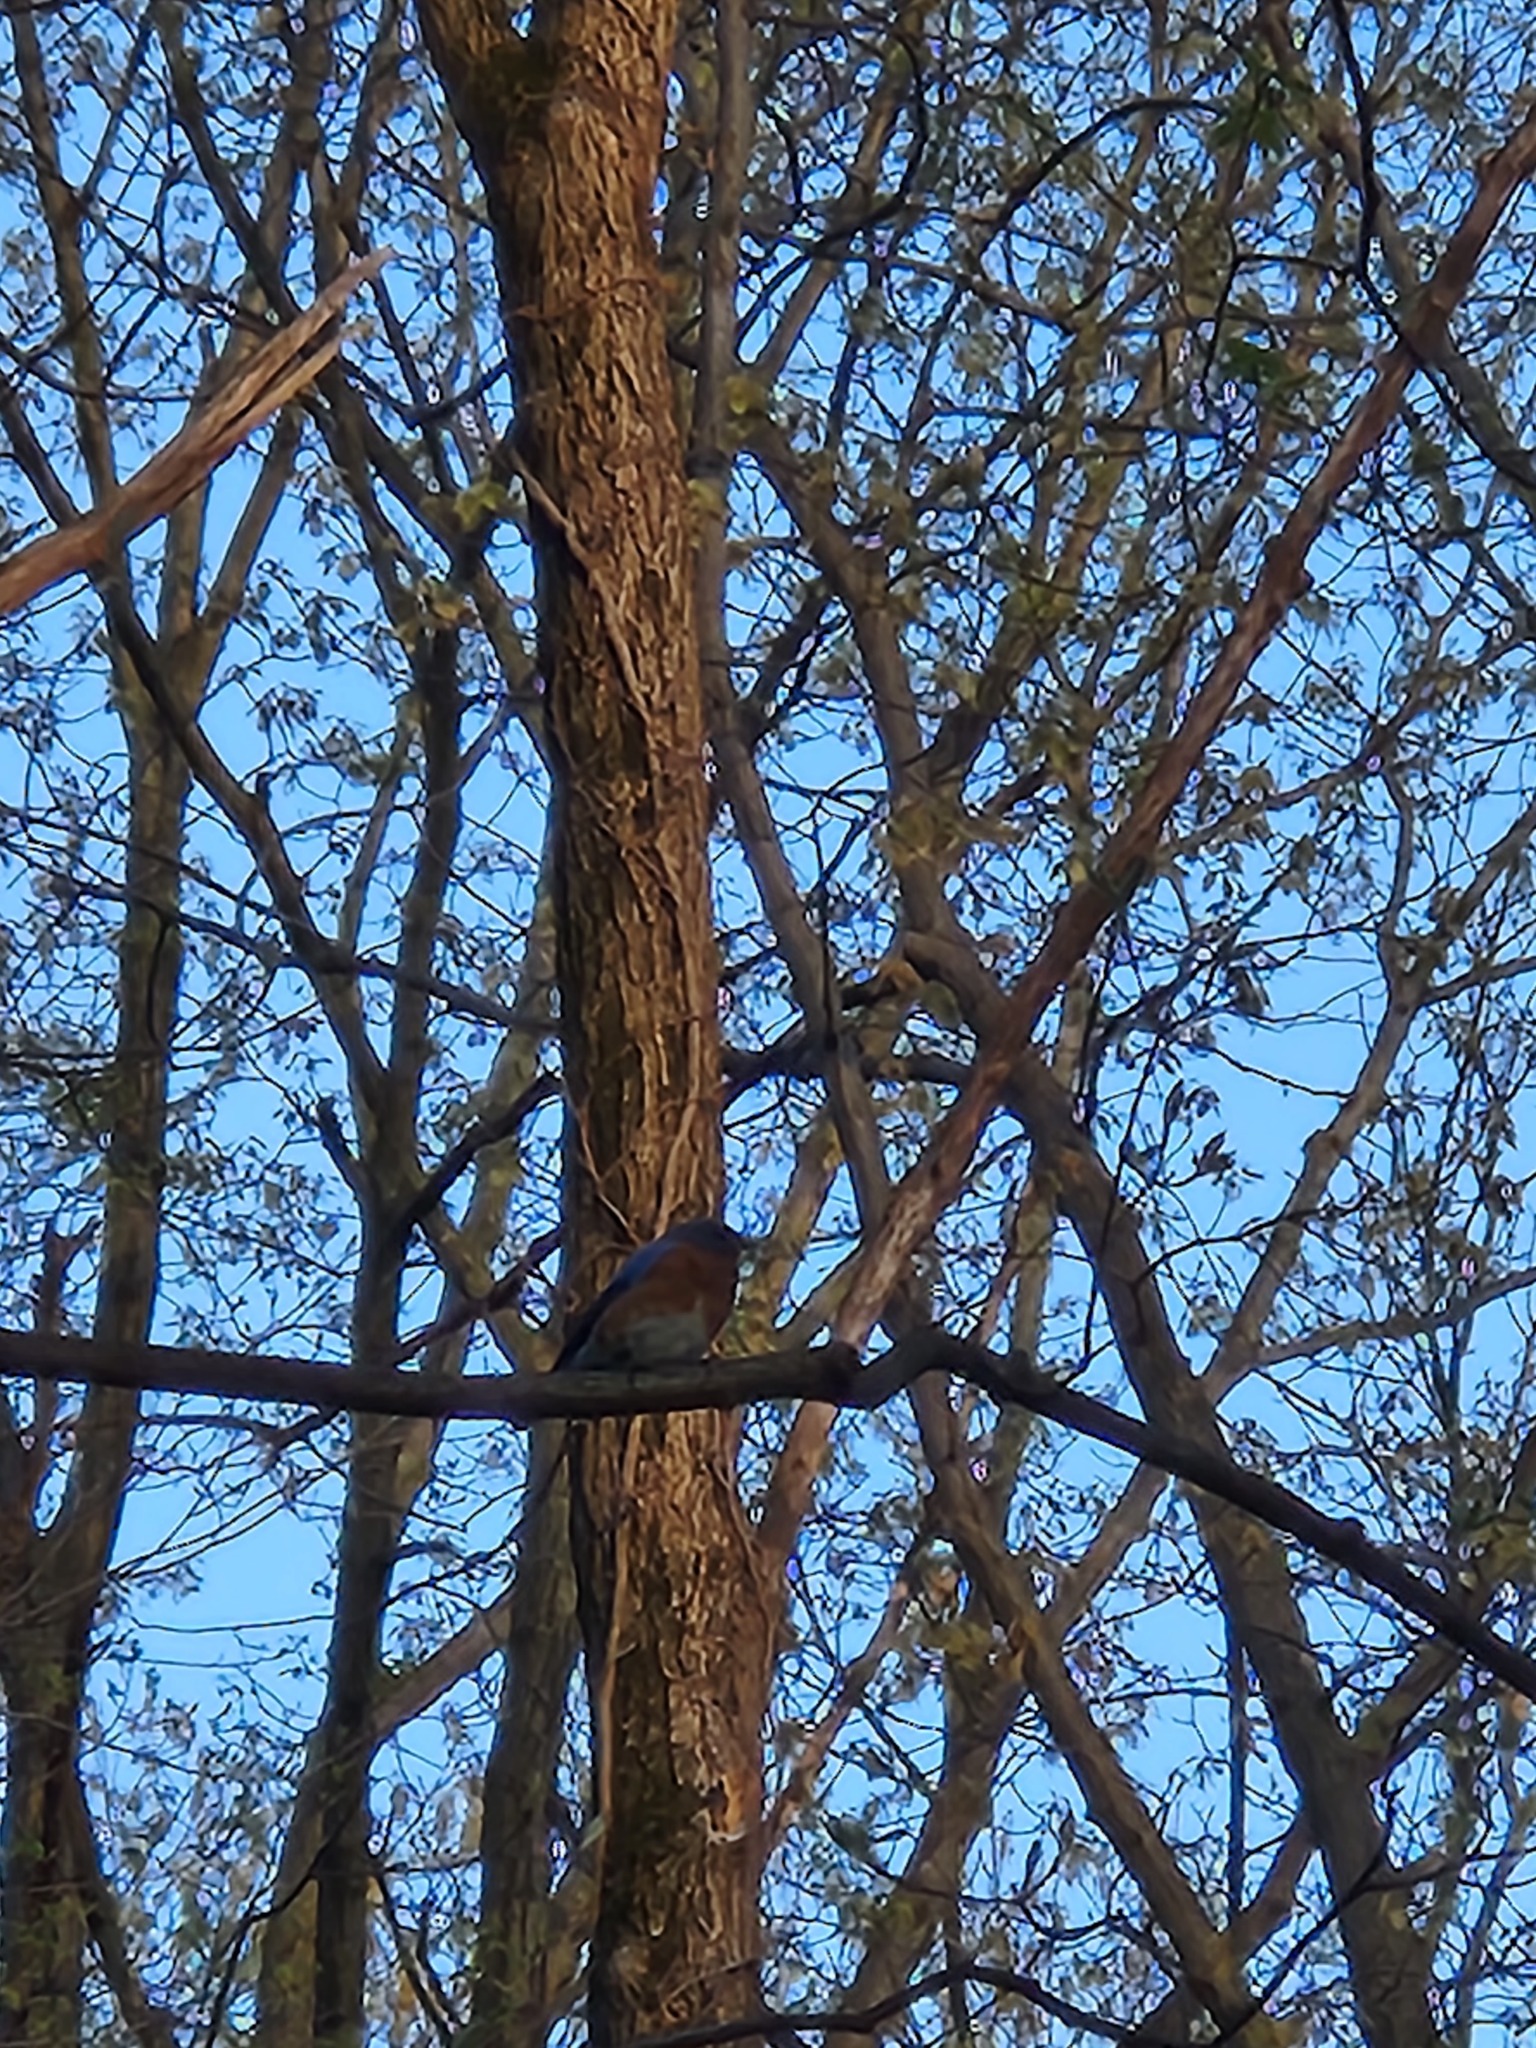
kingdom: Animalia
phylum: Chordata
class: Aves
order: Passeriformes
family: Turdidae
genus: Sialia
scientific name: Sialia sialis
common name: Eastern bluebird
